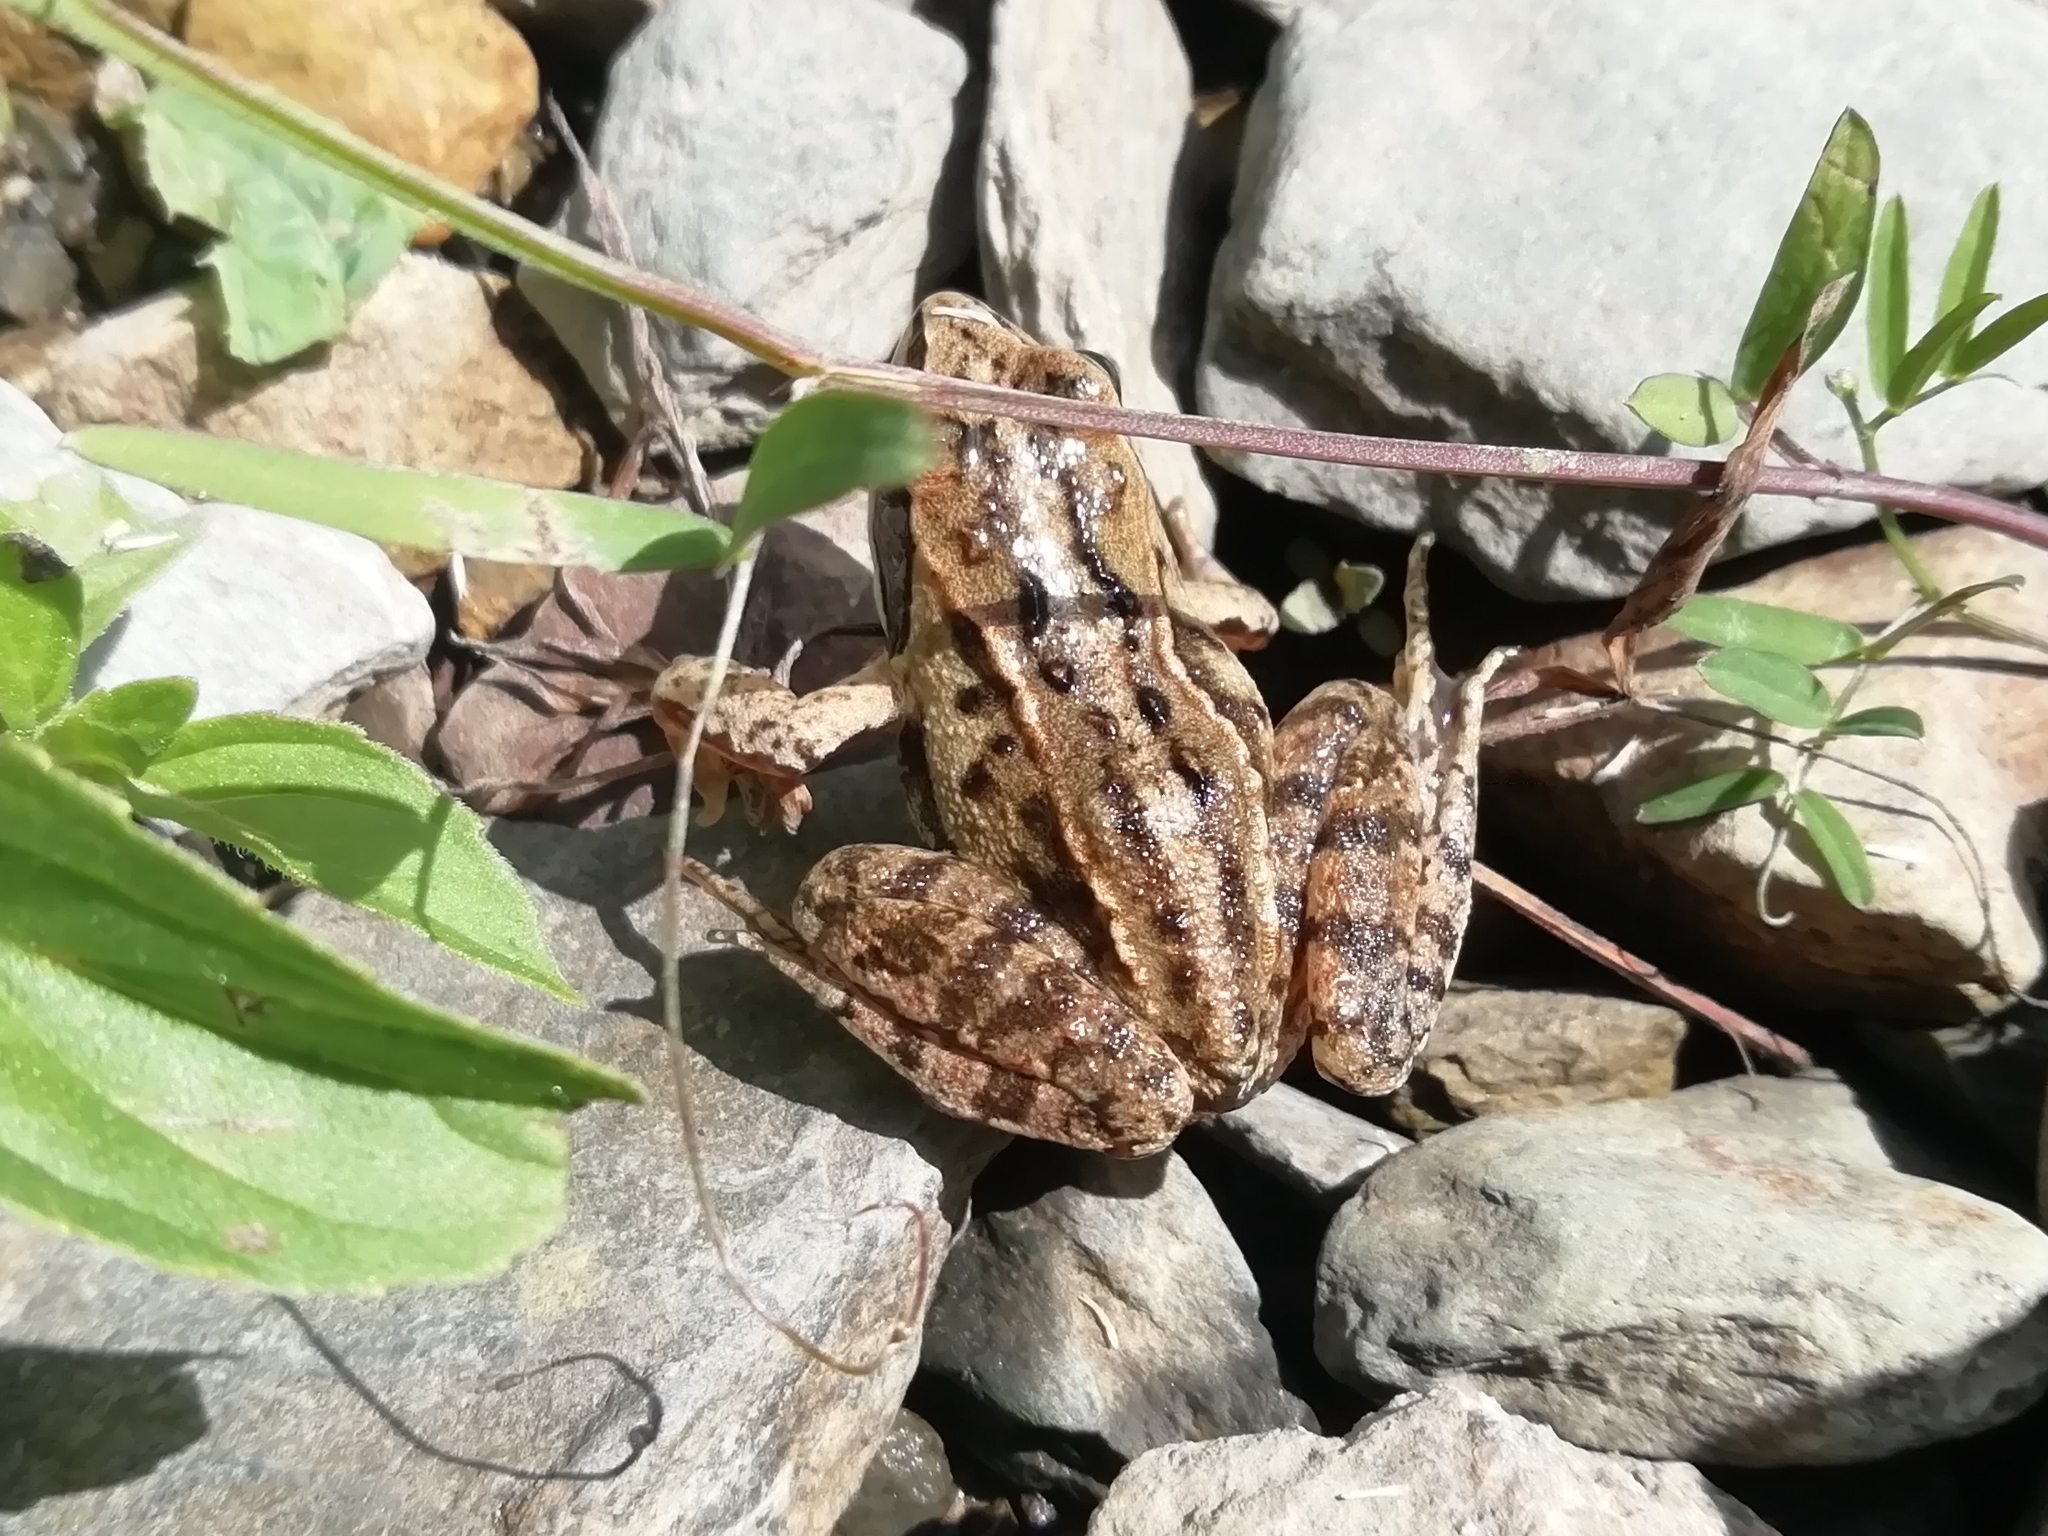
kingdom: Animalia
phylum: Chordata
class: Amphibia
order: Anura
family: Ranidae
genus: Rana
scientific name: Rana arvalis
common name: Moor frog
